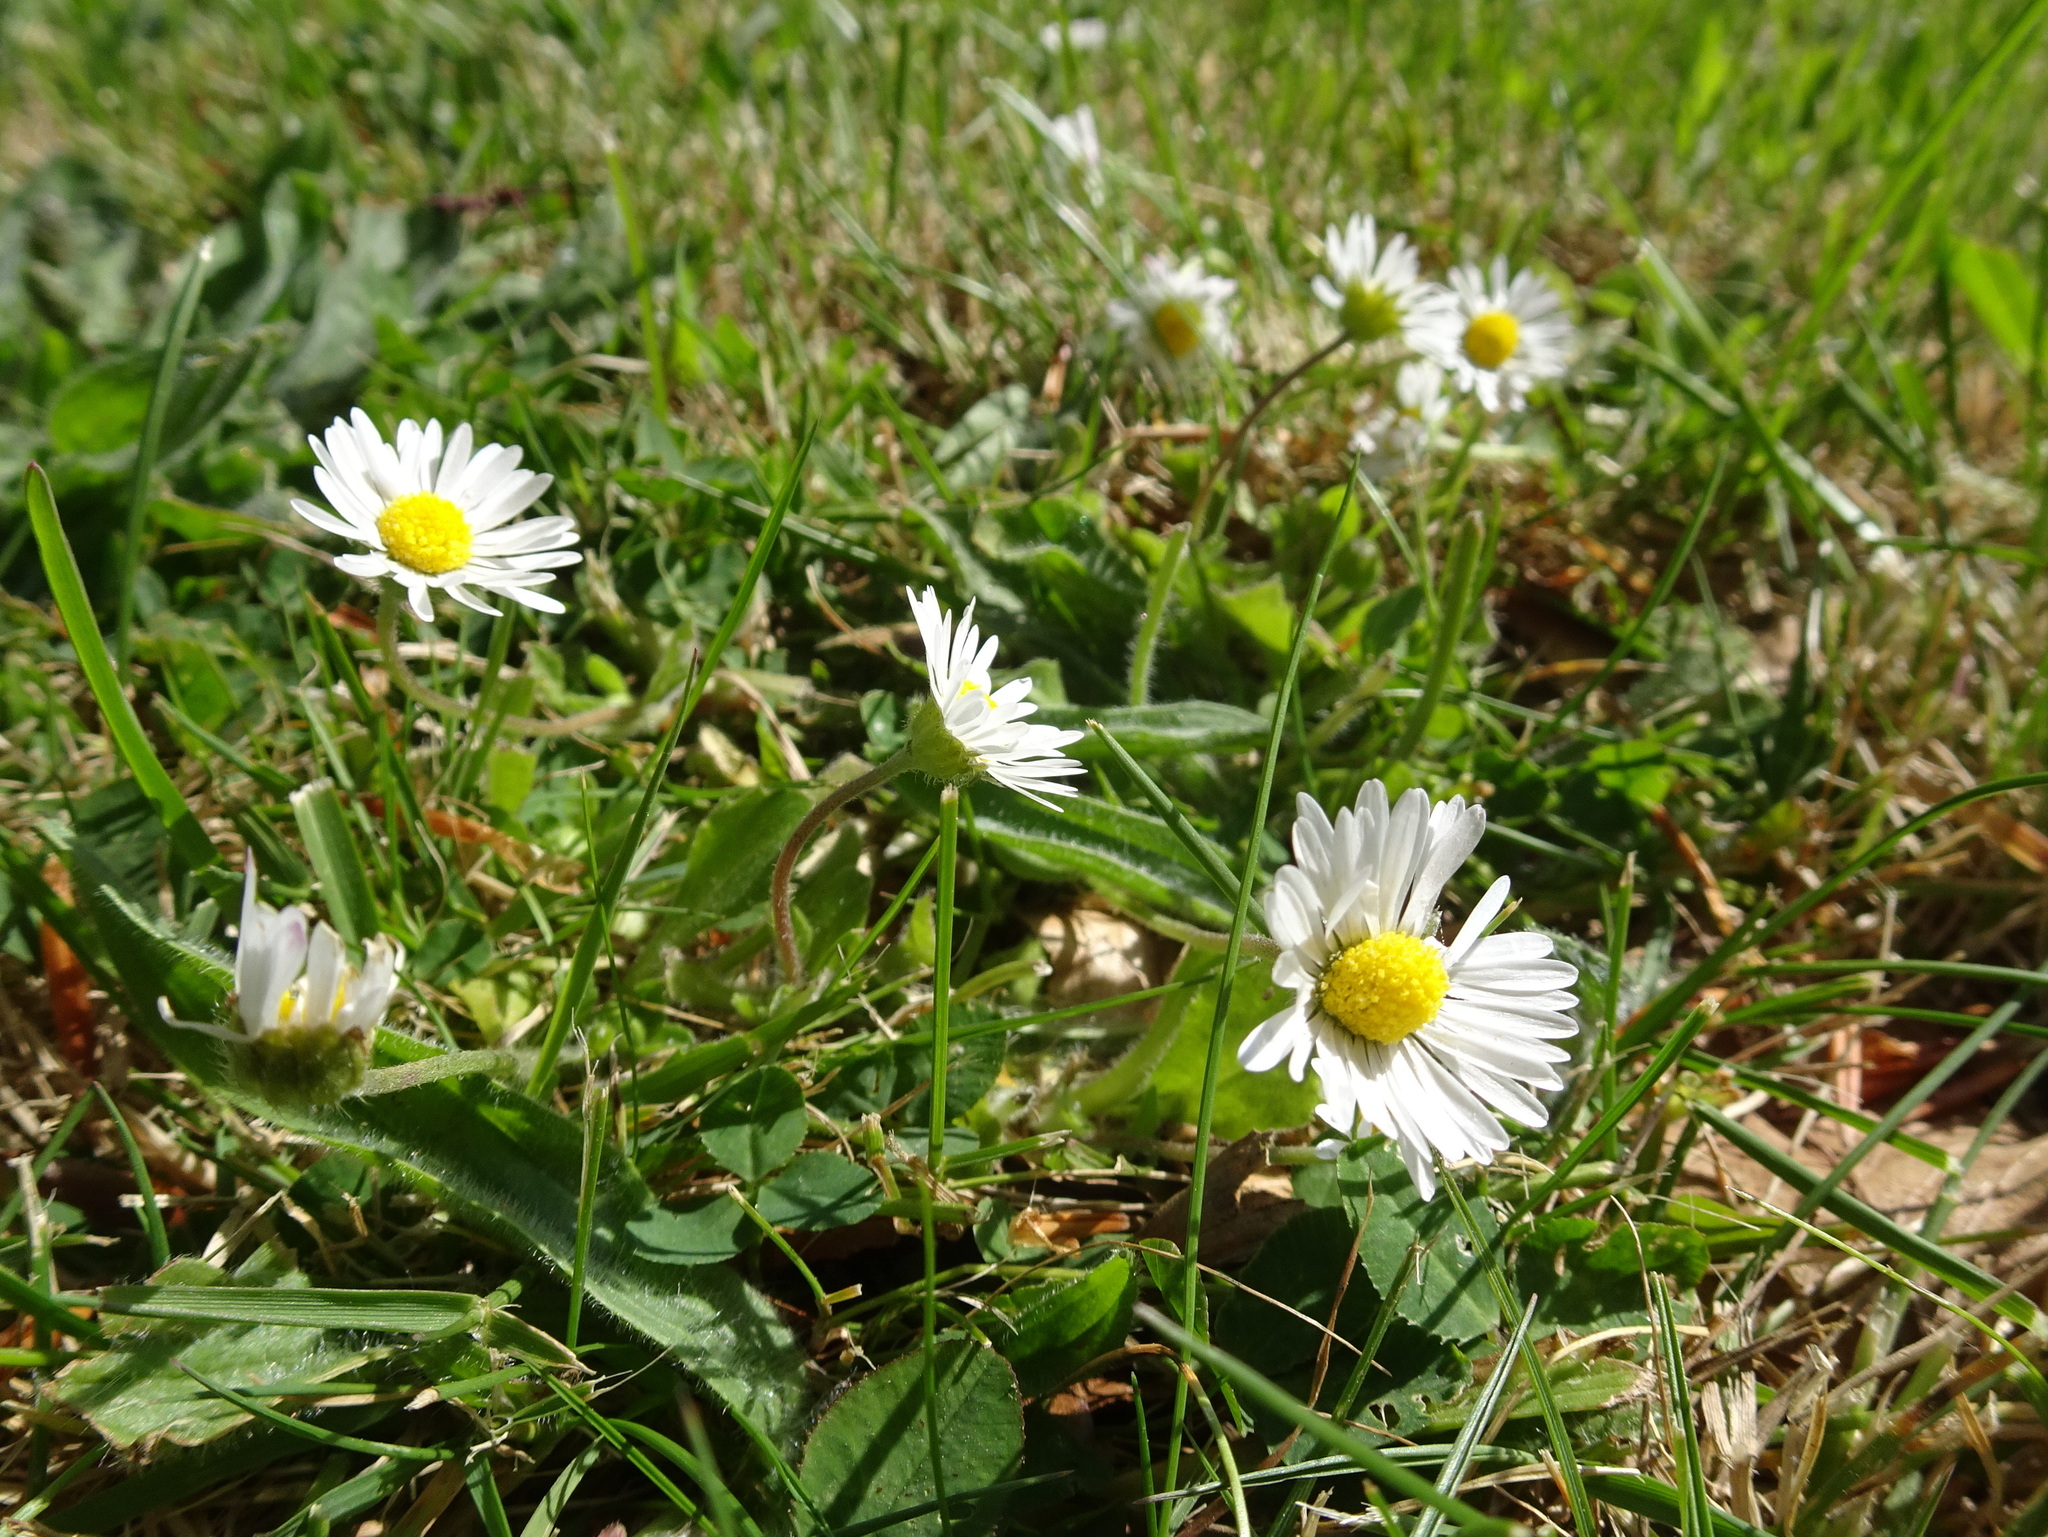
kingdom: Plantae
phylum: Tracheophyta
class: Magnoliopsida
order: Asterales
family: Asteraceae
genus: Bellis
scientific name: Bellis perennis
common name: Lawndaisy
